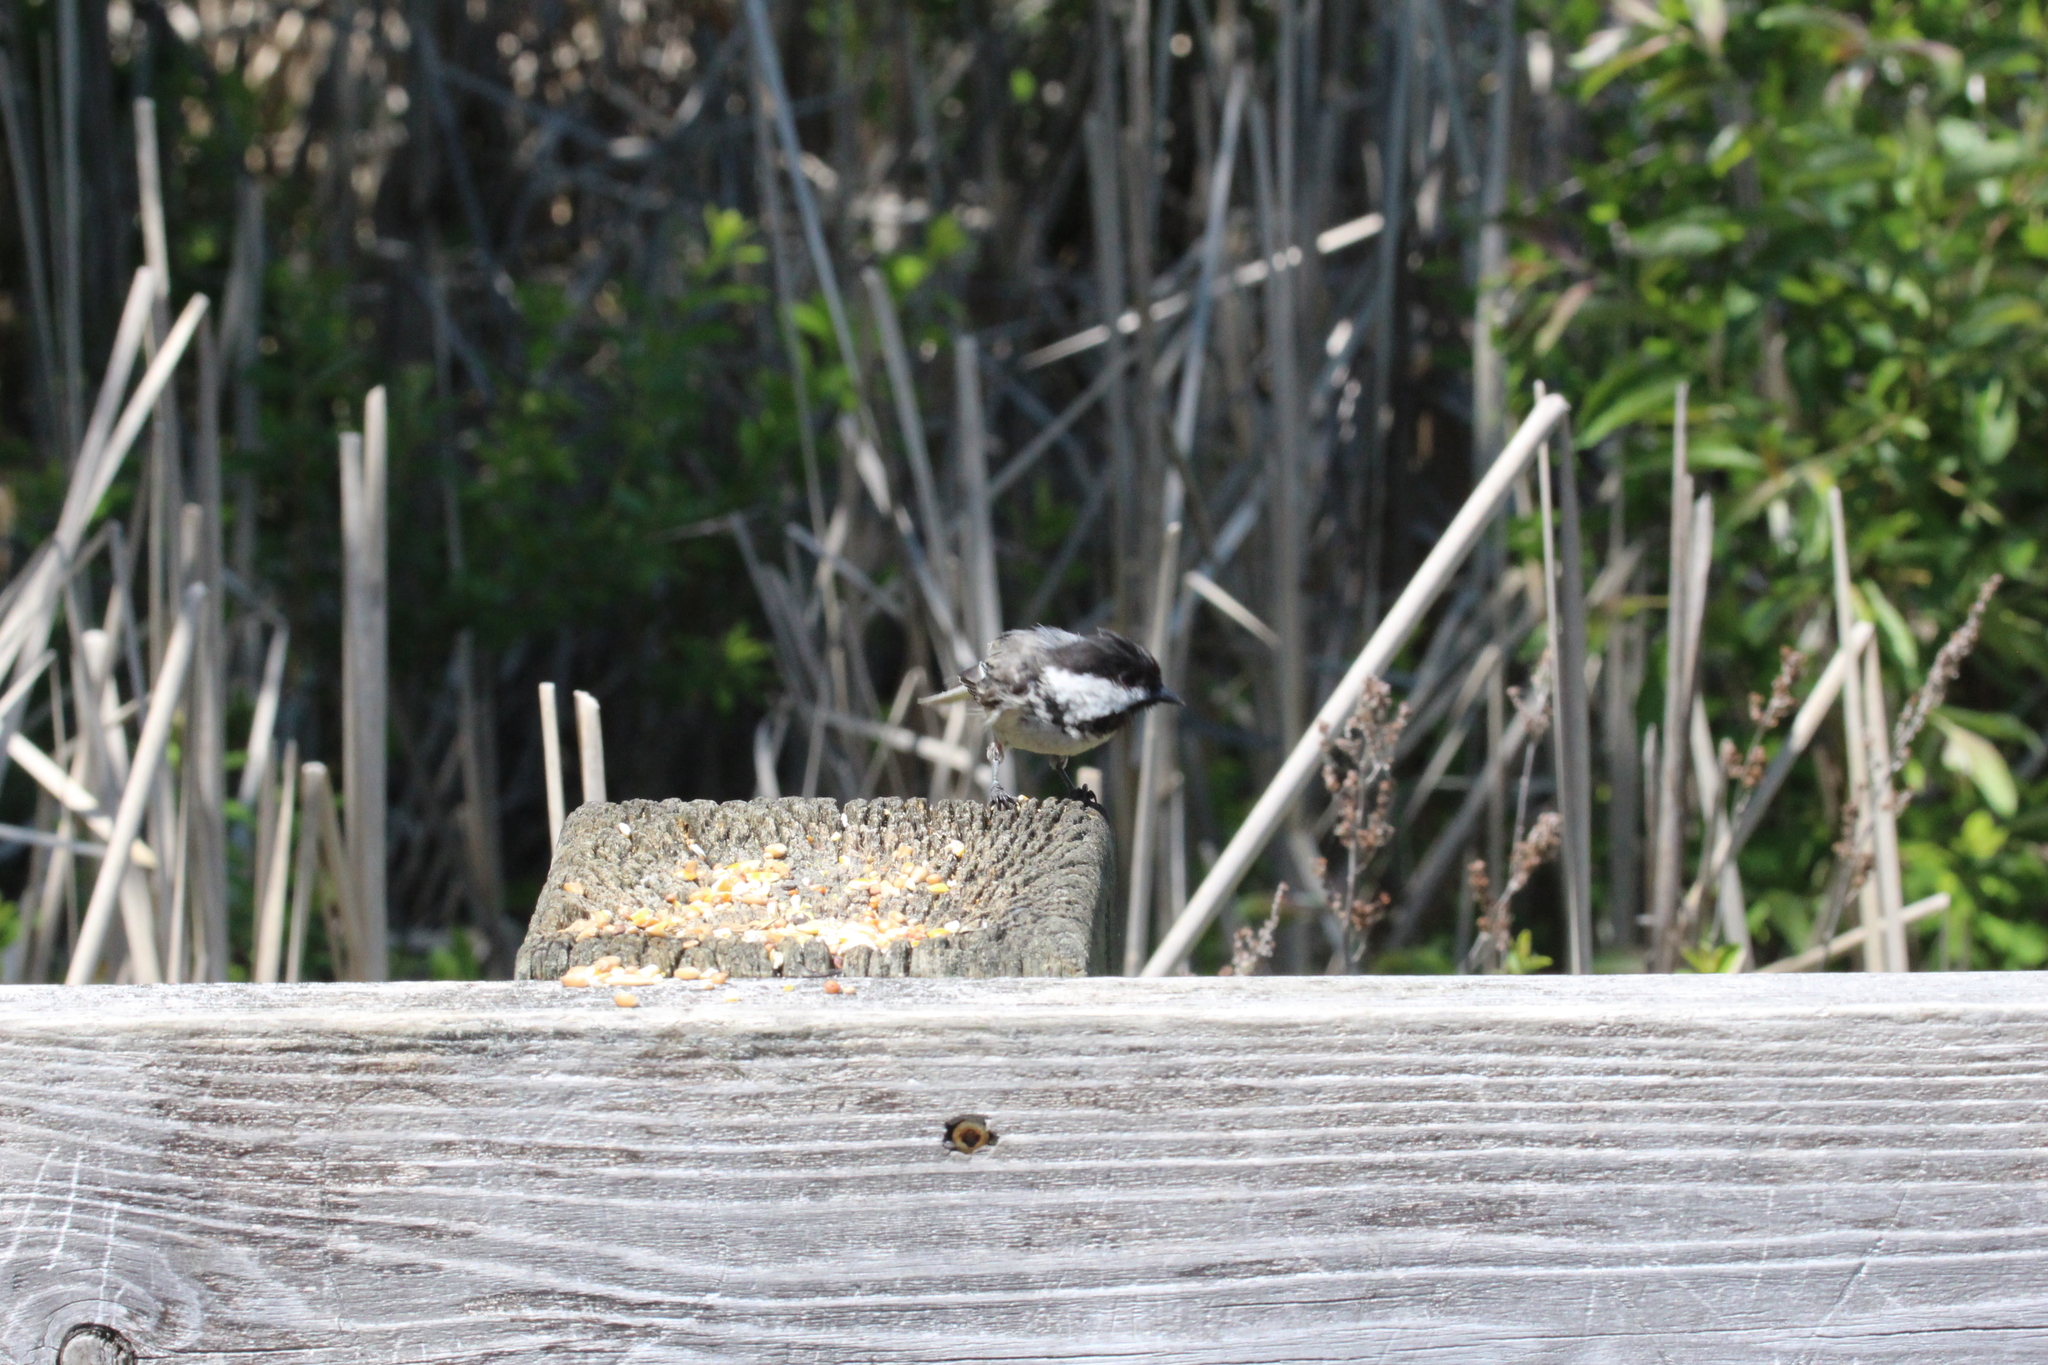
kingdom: Animalia
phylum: Chordata
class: Aves
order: Passeriformes
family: Paridae
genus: Poecile
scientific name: Poecile atricapillus
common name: Black-capped chickadee
